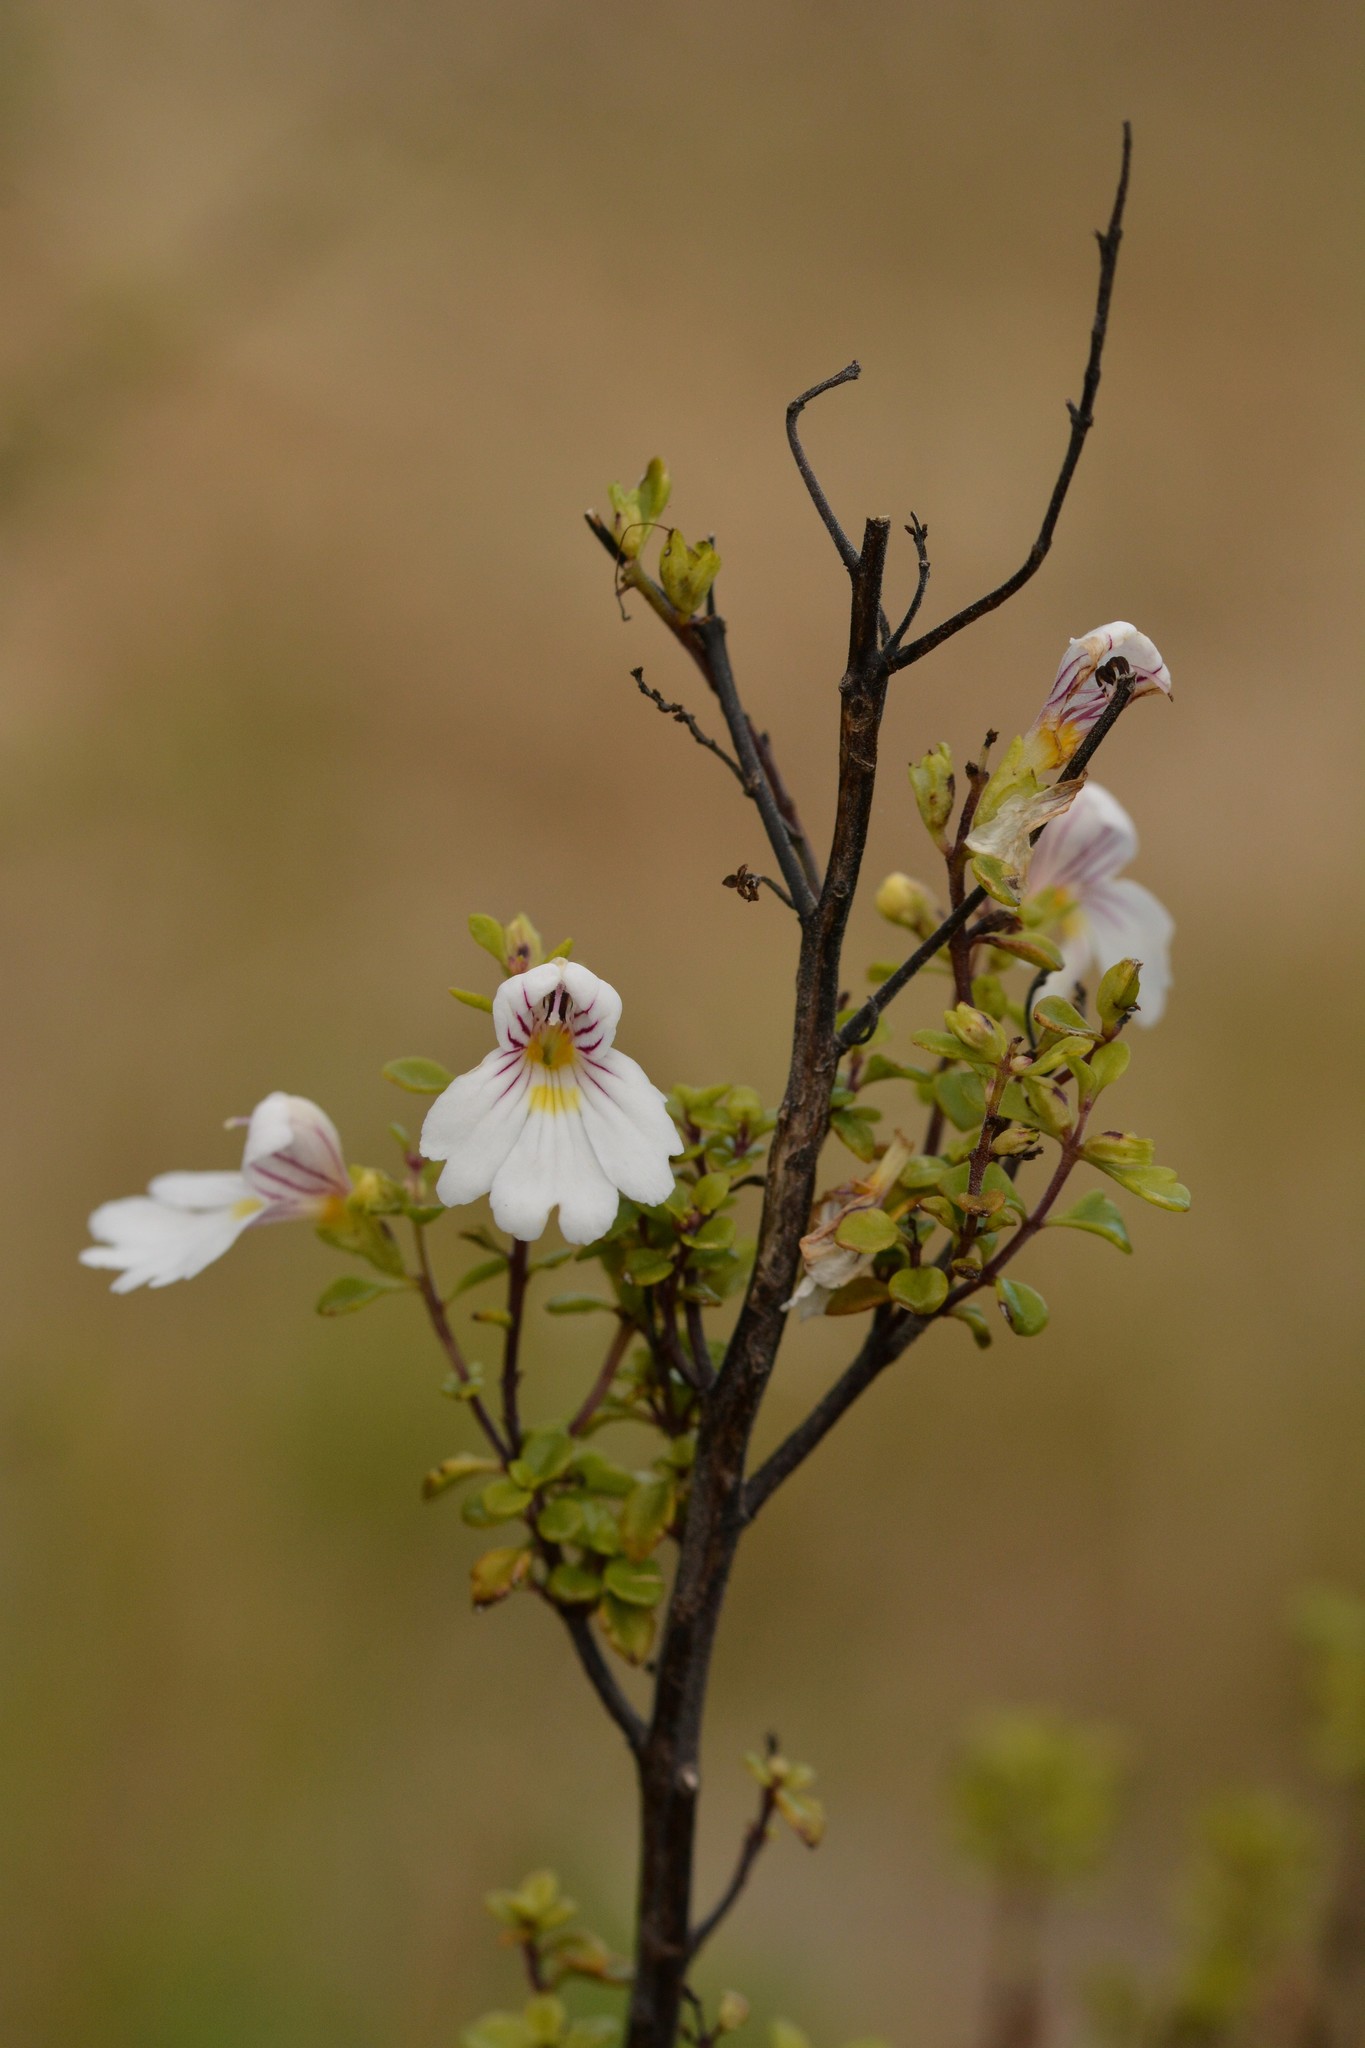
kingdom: Plantae
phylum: Tracheophyta
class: Magnoliopsida
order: Lamiales
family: Orobanchaceae
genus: Euphrasia
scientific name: Euphrasia cuneata
